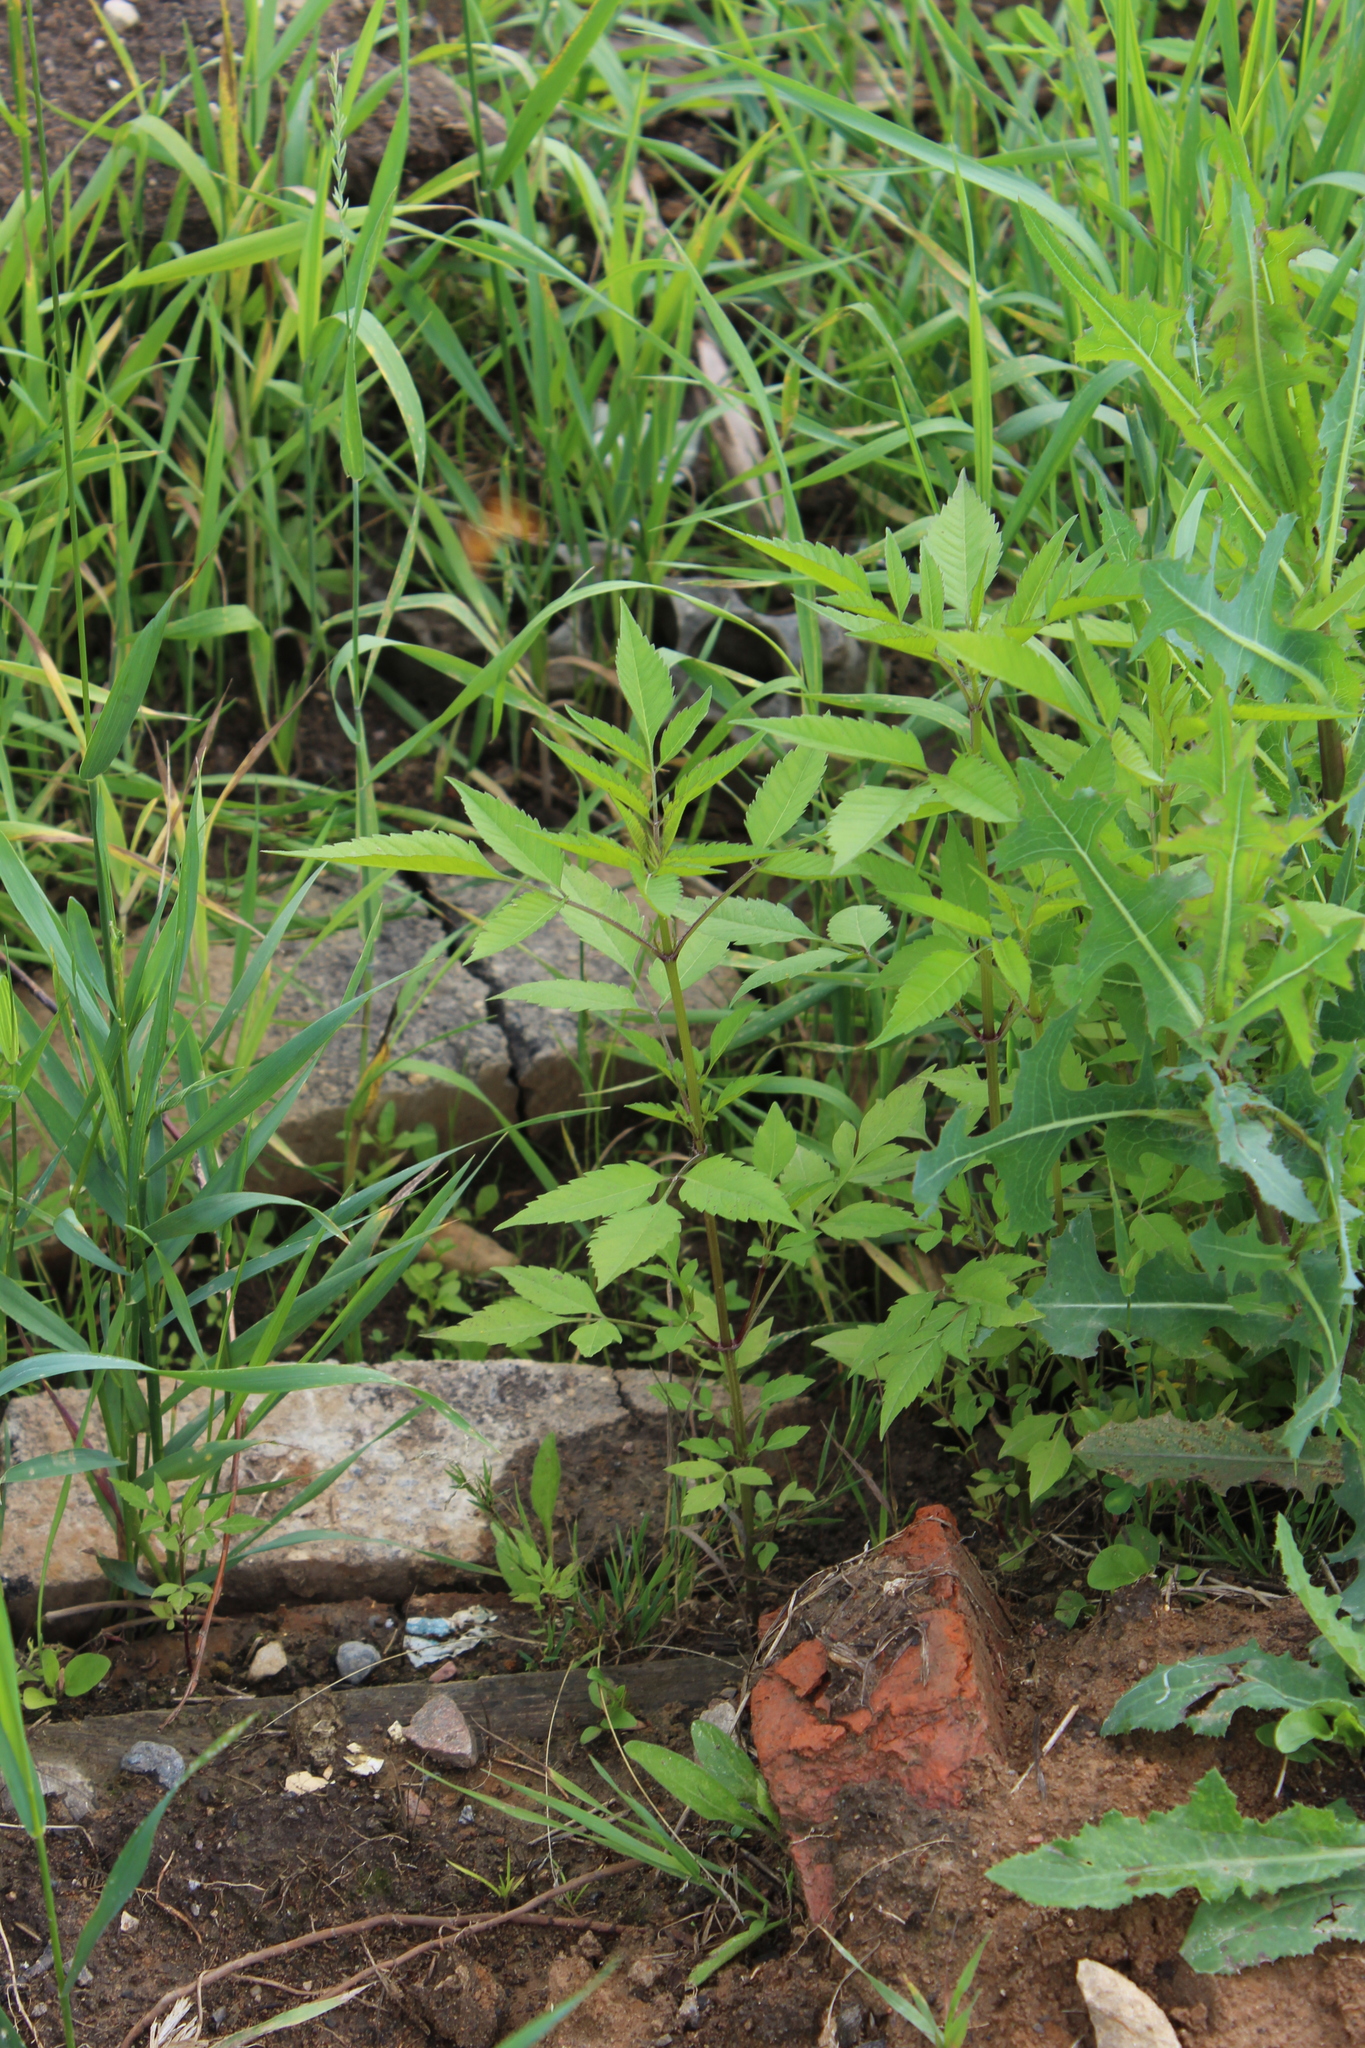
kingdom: Plantae
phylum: Tracheophyta
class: Magnoliopsida
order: Asterales
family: Asteraceae
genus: Bidens
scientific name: Bidens frondosa
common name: Beggarticks
